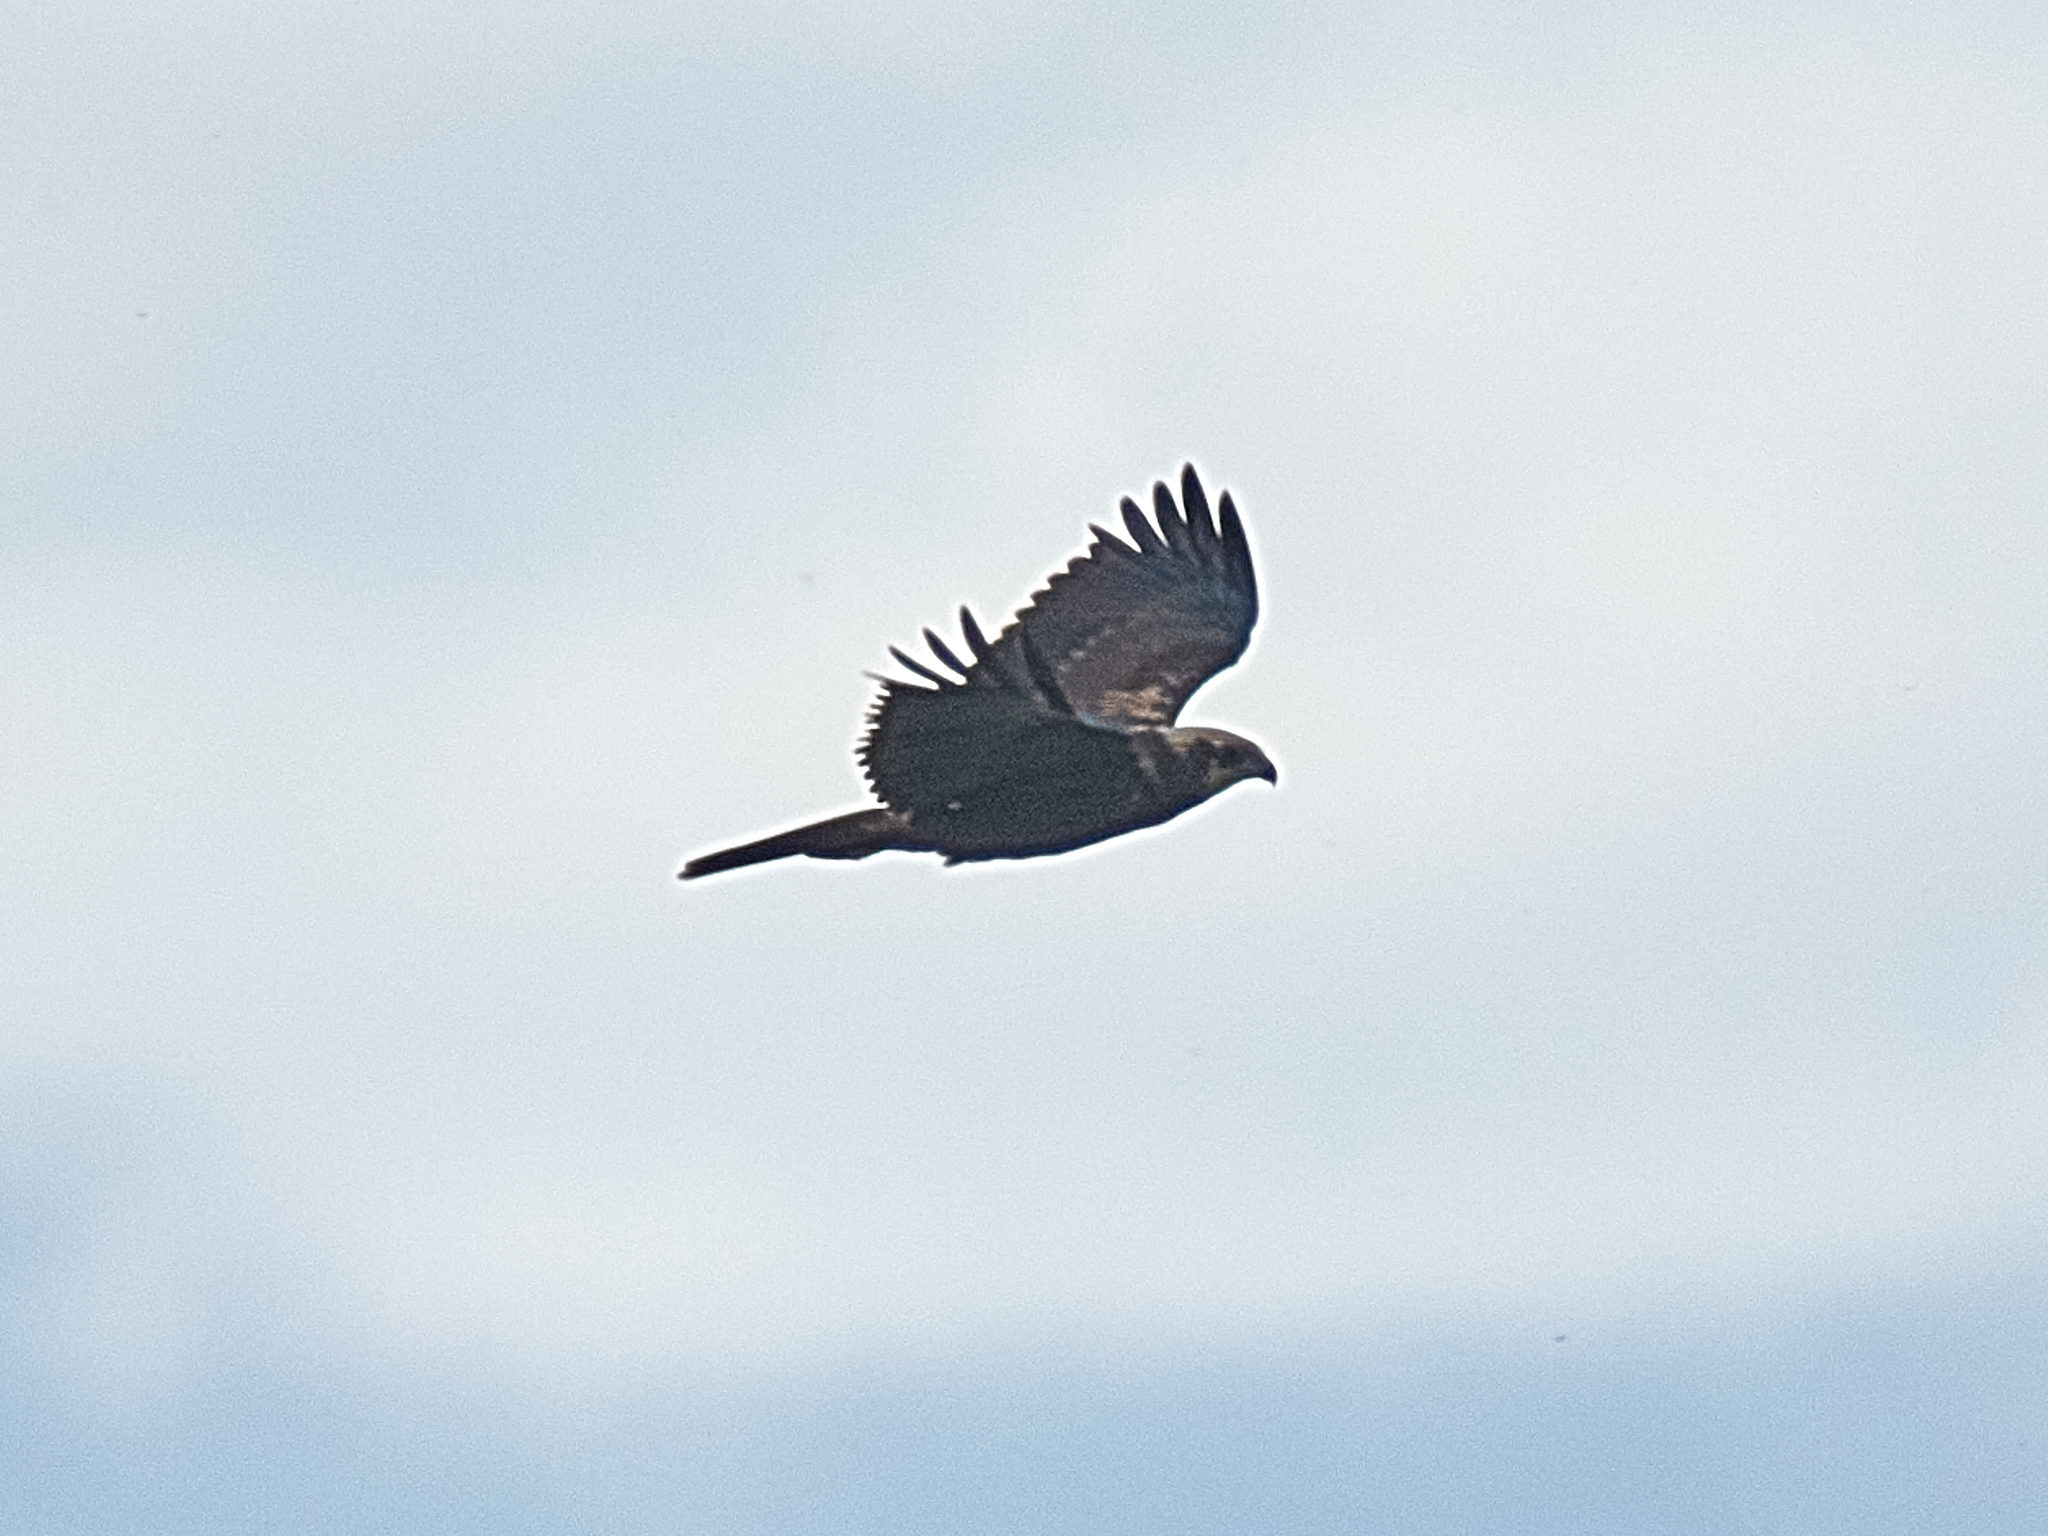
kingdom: Animalia
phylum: Chordata
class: Aves
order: Accipitriformes
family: Accipitridae
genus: Circus
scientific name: Circus aeruginosus
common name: Western marsh harrier
